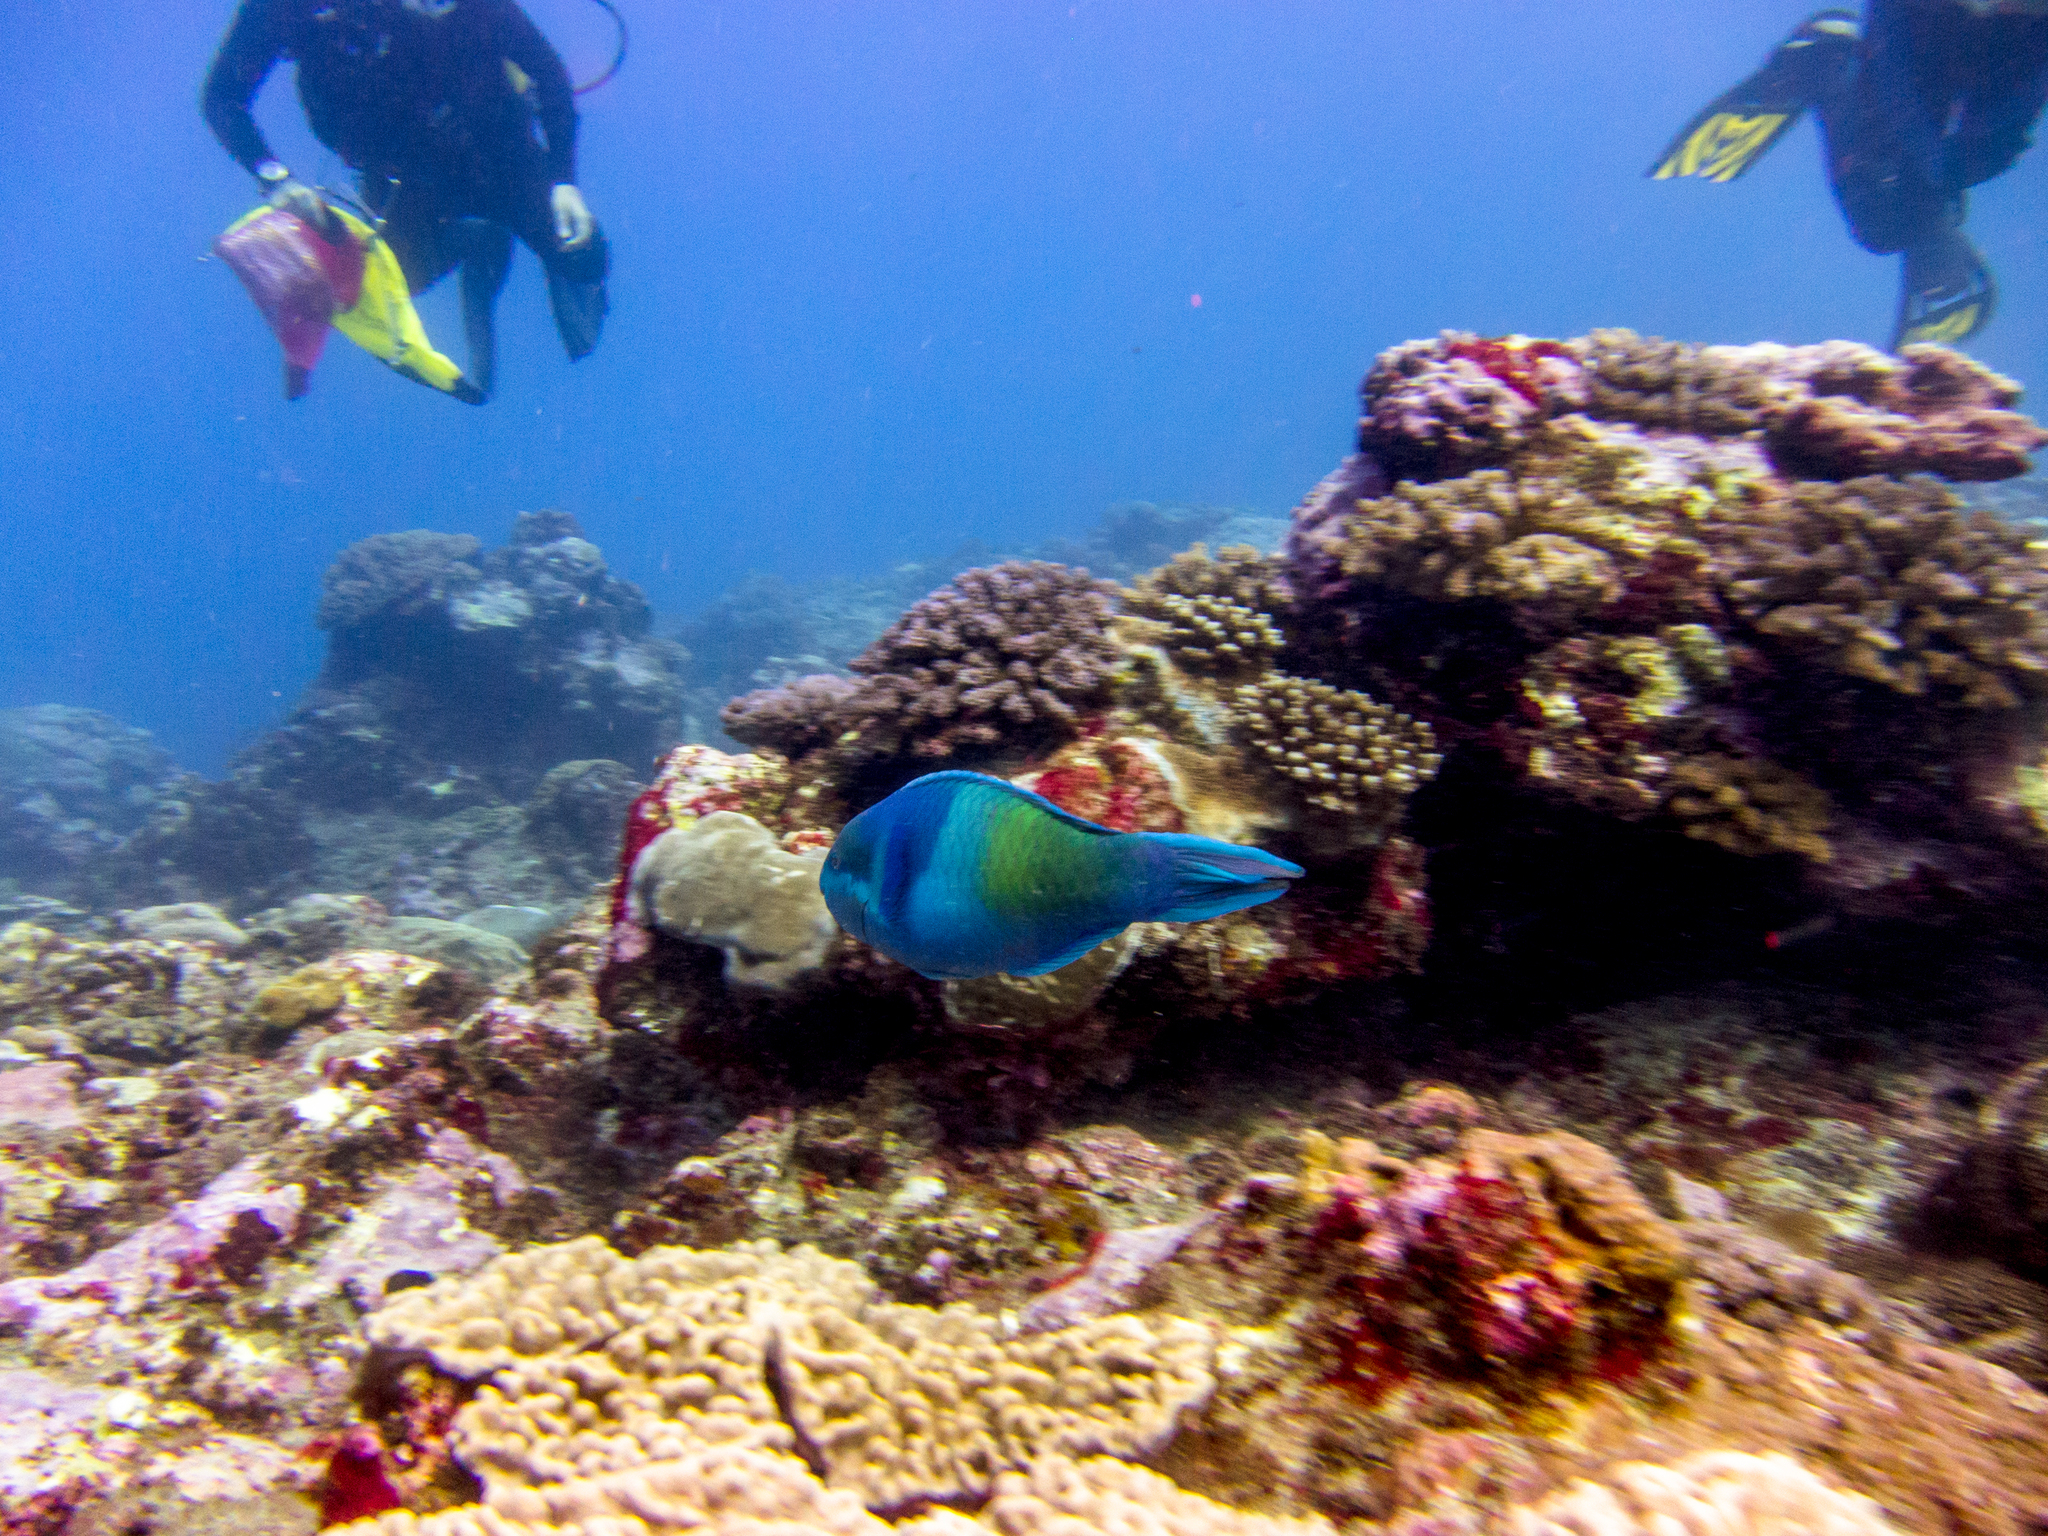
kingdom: Animalia
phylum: Chordata
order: Perciformes
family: Scaridae
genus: Scarus
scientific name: Scarus scaber
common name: Dusky-capped parrotfish
